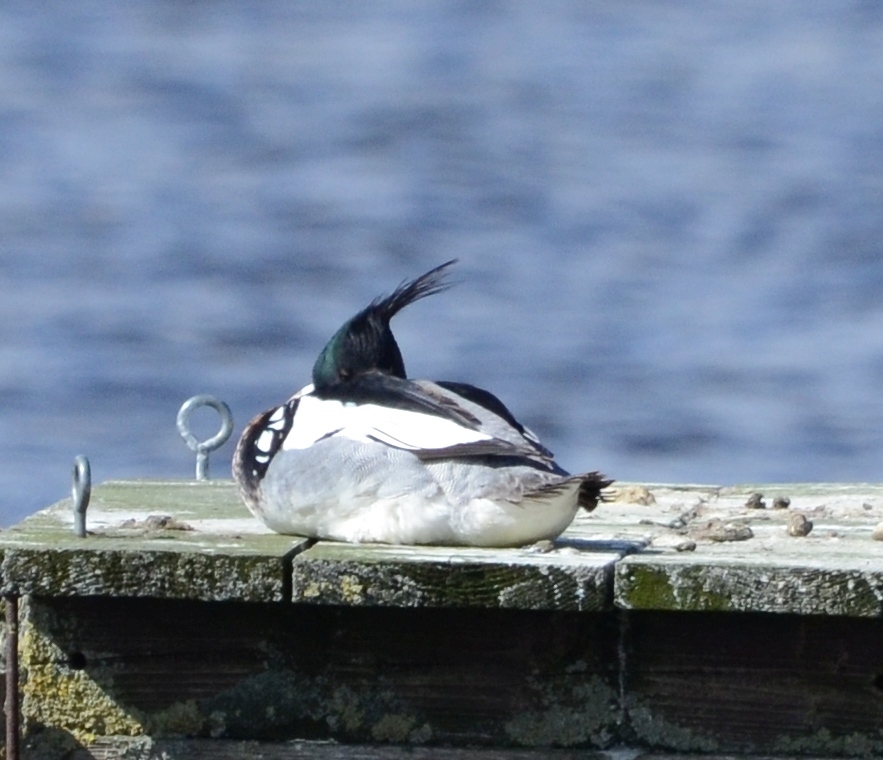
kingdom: Animalia
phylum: Chordata
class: Aves
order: Anseriformes
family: Anatidae
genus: Mergus
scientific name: Mergus serrator
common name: Red-breasted merganser
